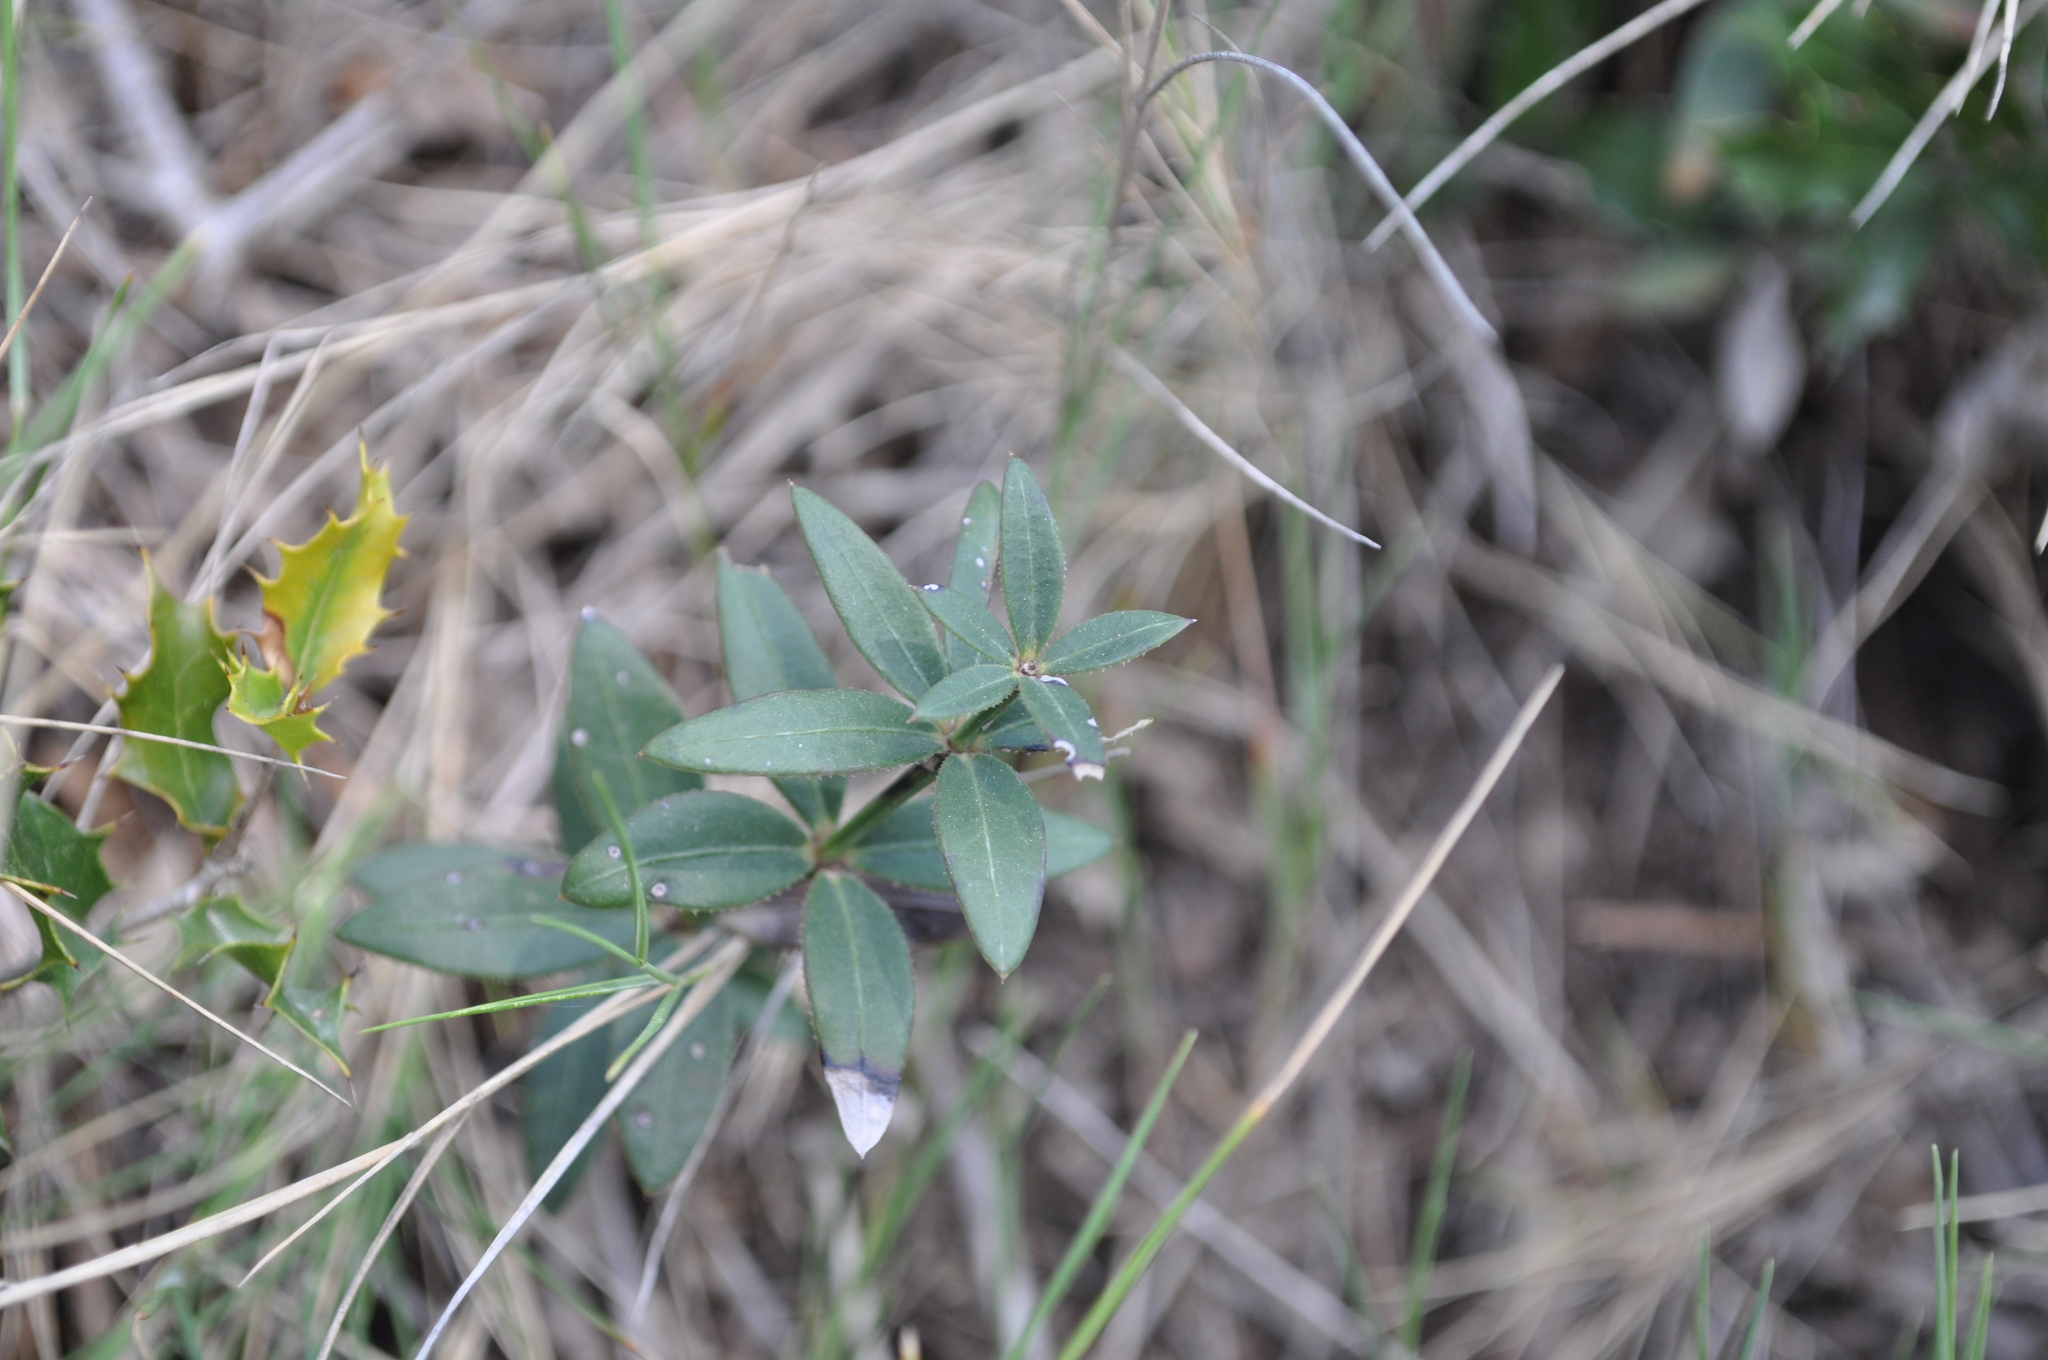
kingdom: Plantae
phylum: Tracheophyta
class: Magnoliopsida
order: Gentianales
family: Rubiaceae
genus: Rubia
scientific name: Rubia peregrina
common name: Wild madder
